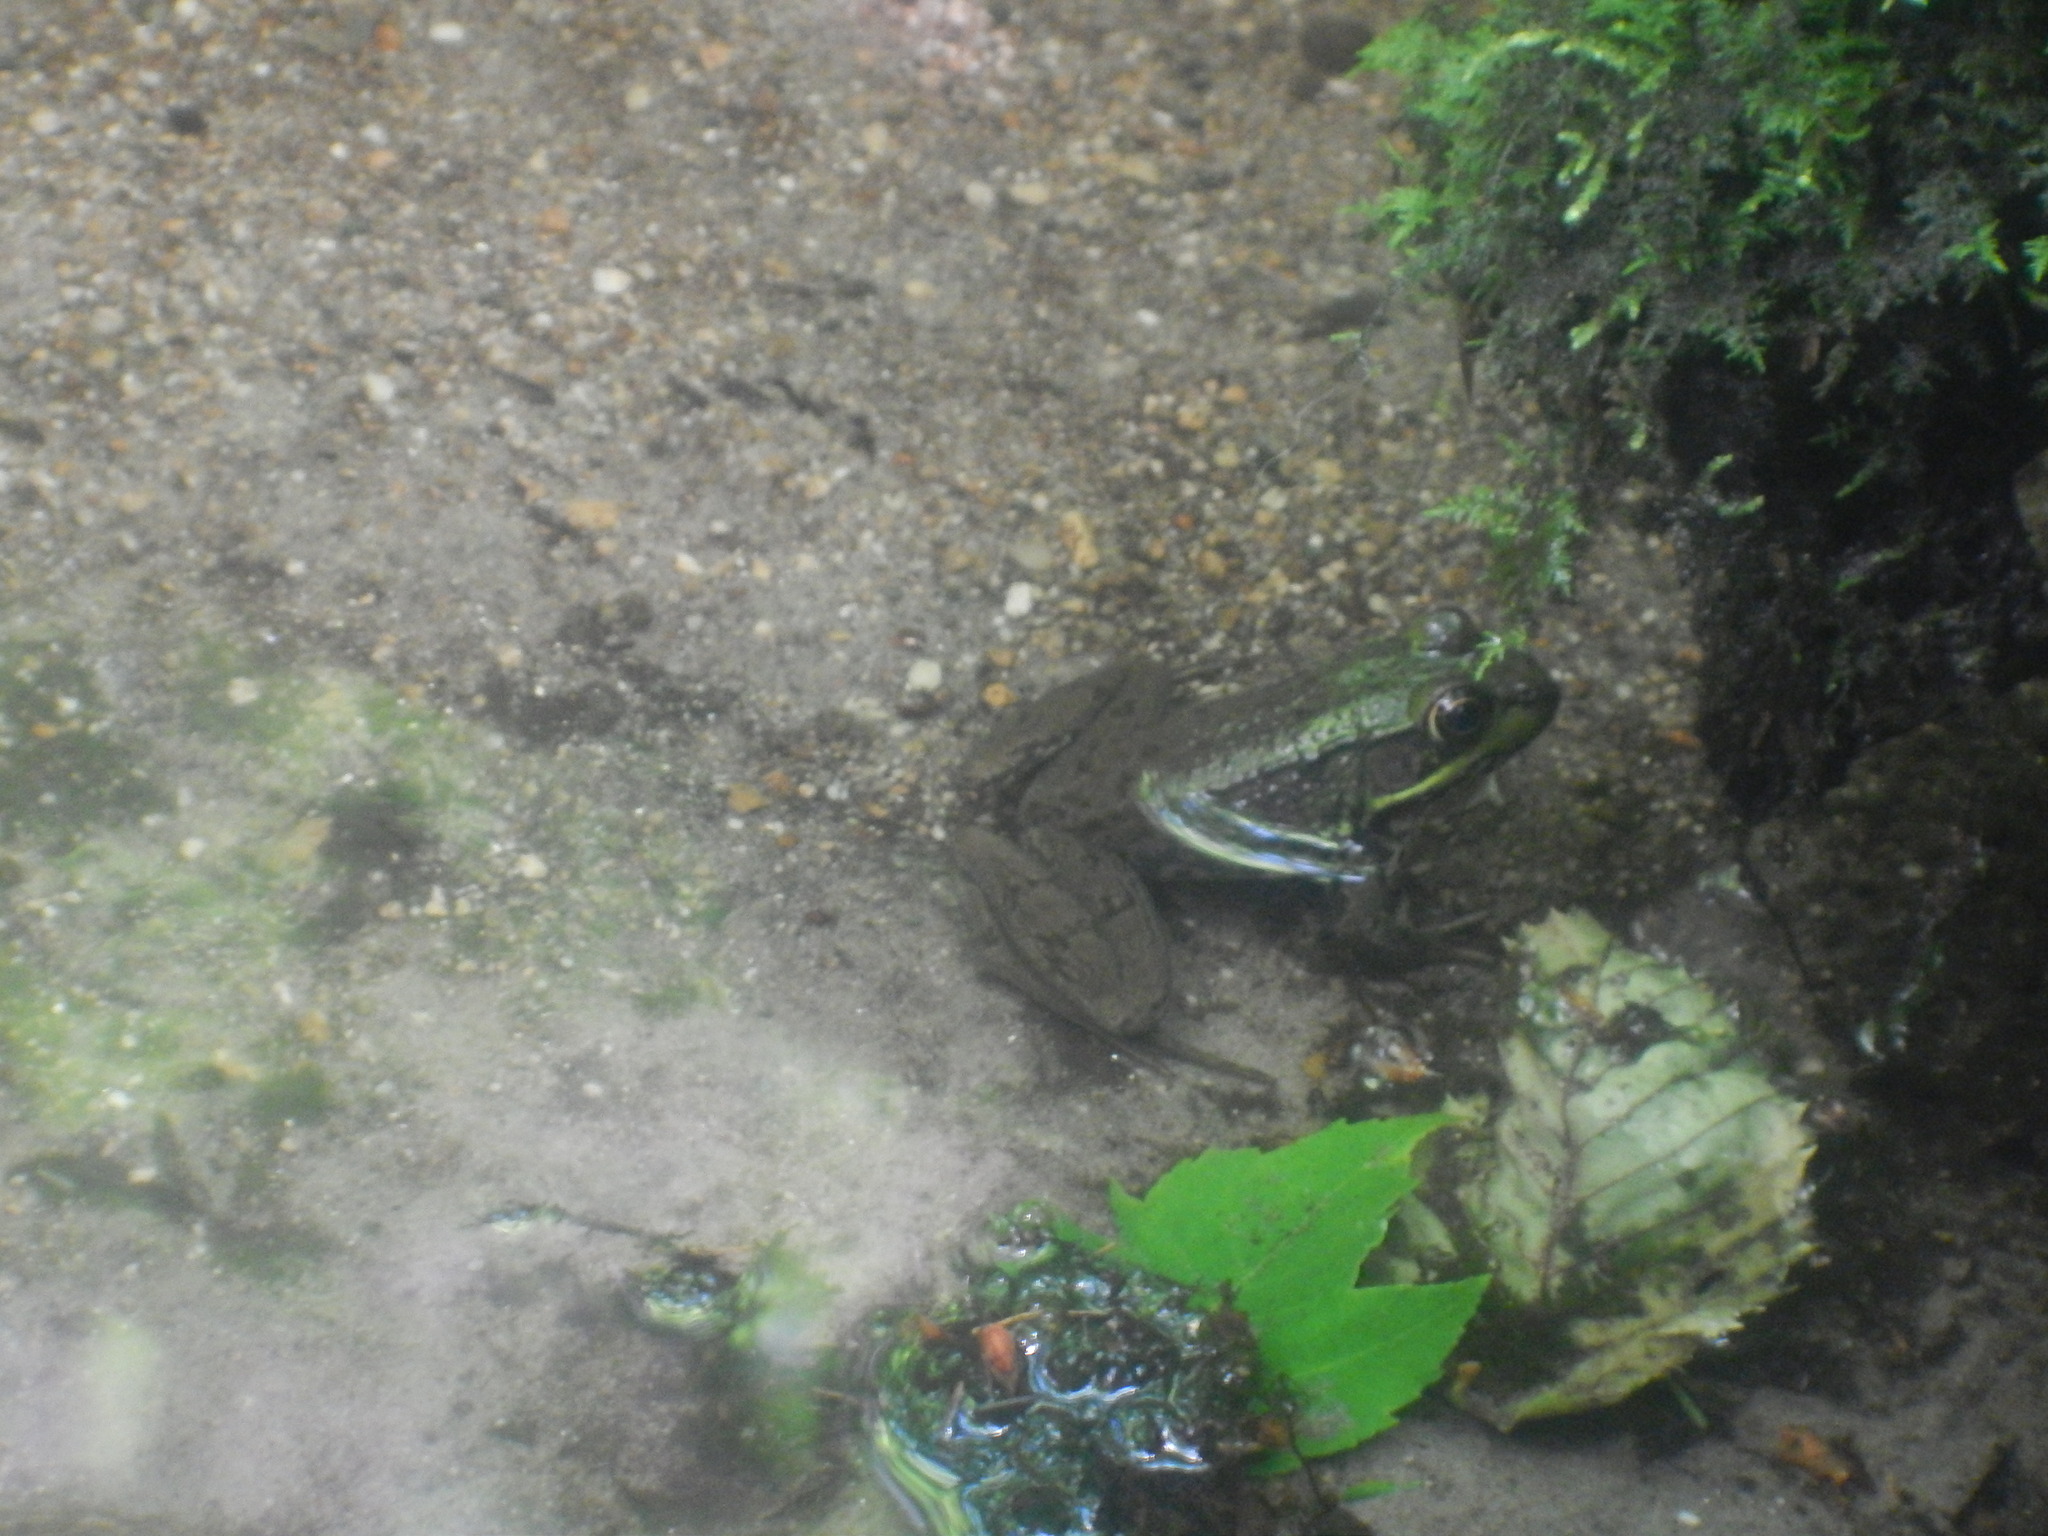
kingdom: Animalia
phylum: Chordata
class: Amphibia
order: Anura
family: Ranidae
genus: Lithobates
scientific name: Lithobates clamitans
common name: Green frog
